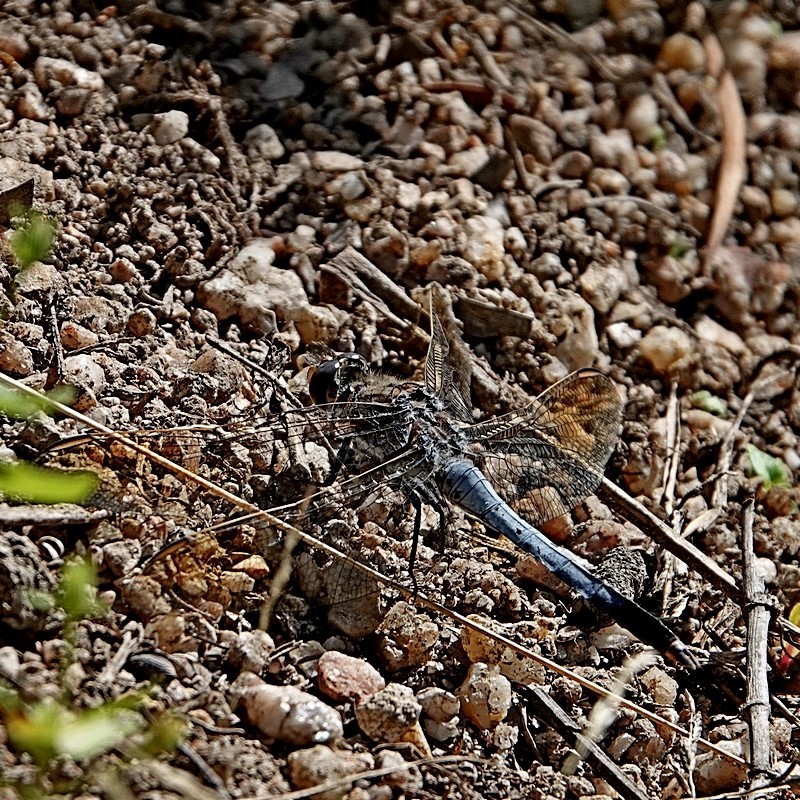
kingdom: Animalia
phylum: Arthropoda
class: Insecta
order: Odonata
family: Libellulidae
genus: Orthetrum
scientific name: Orthetrum caledonicum
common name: Blue skimmer
